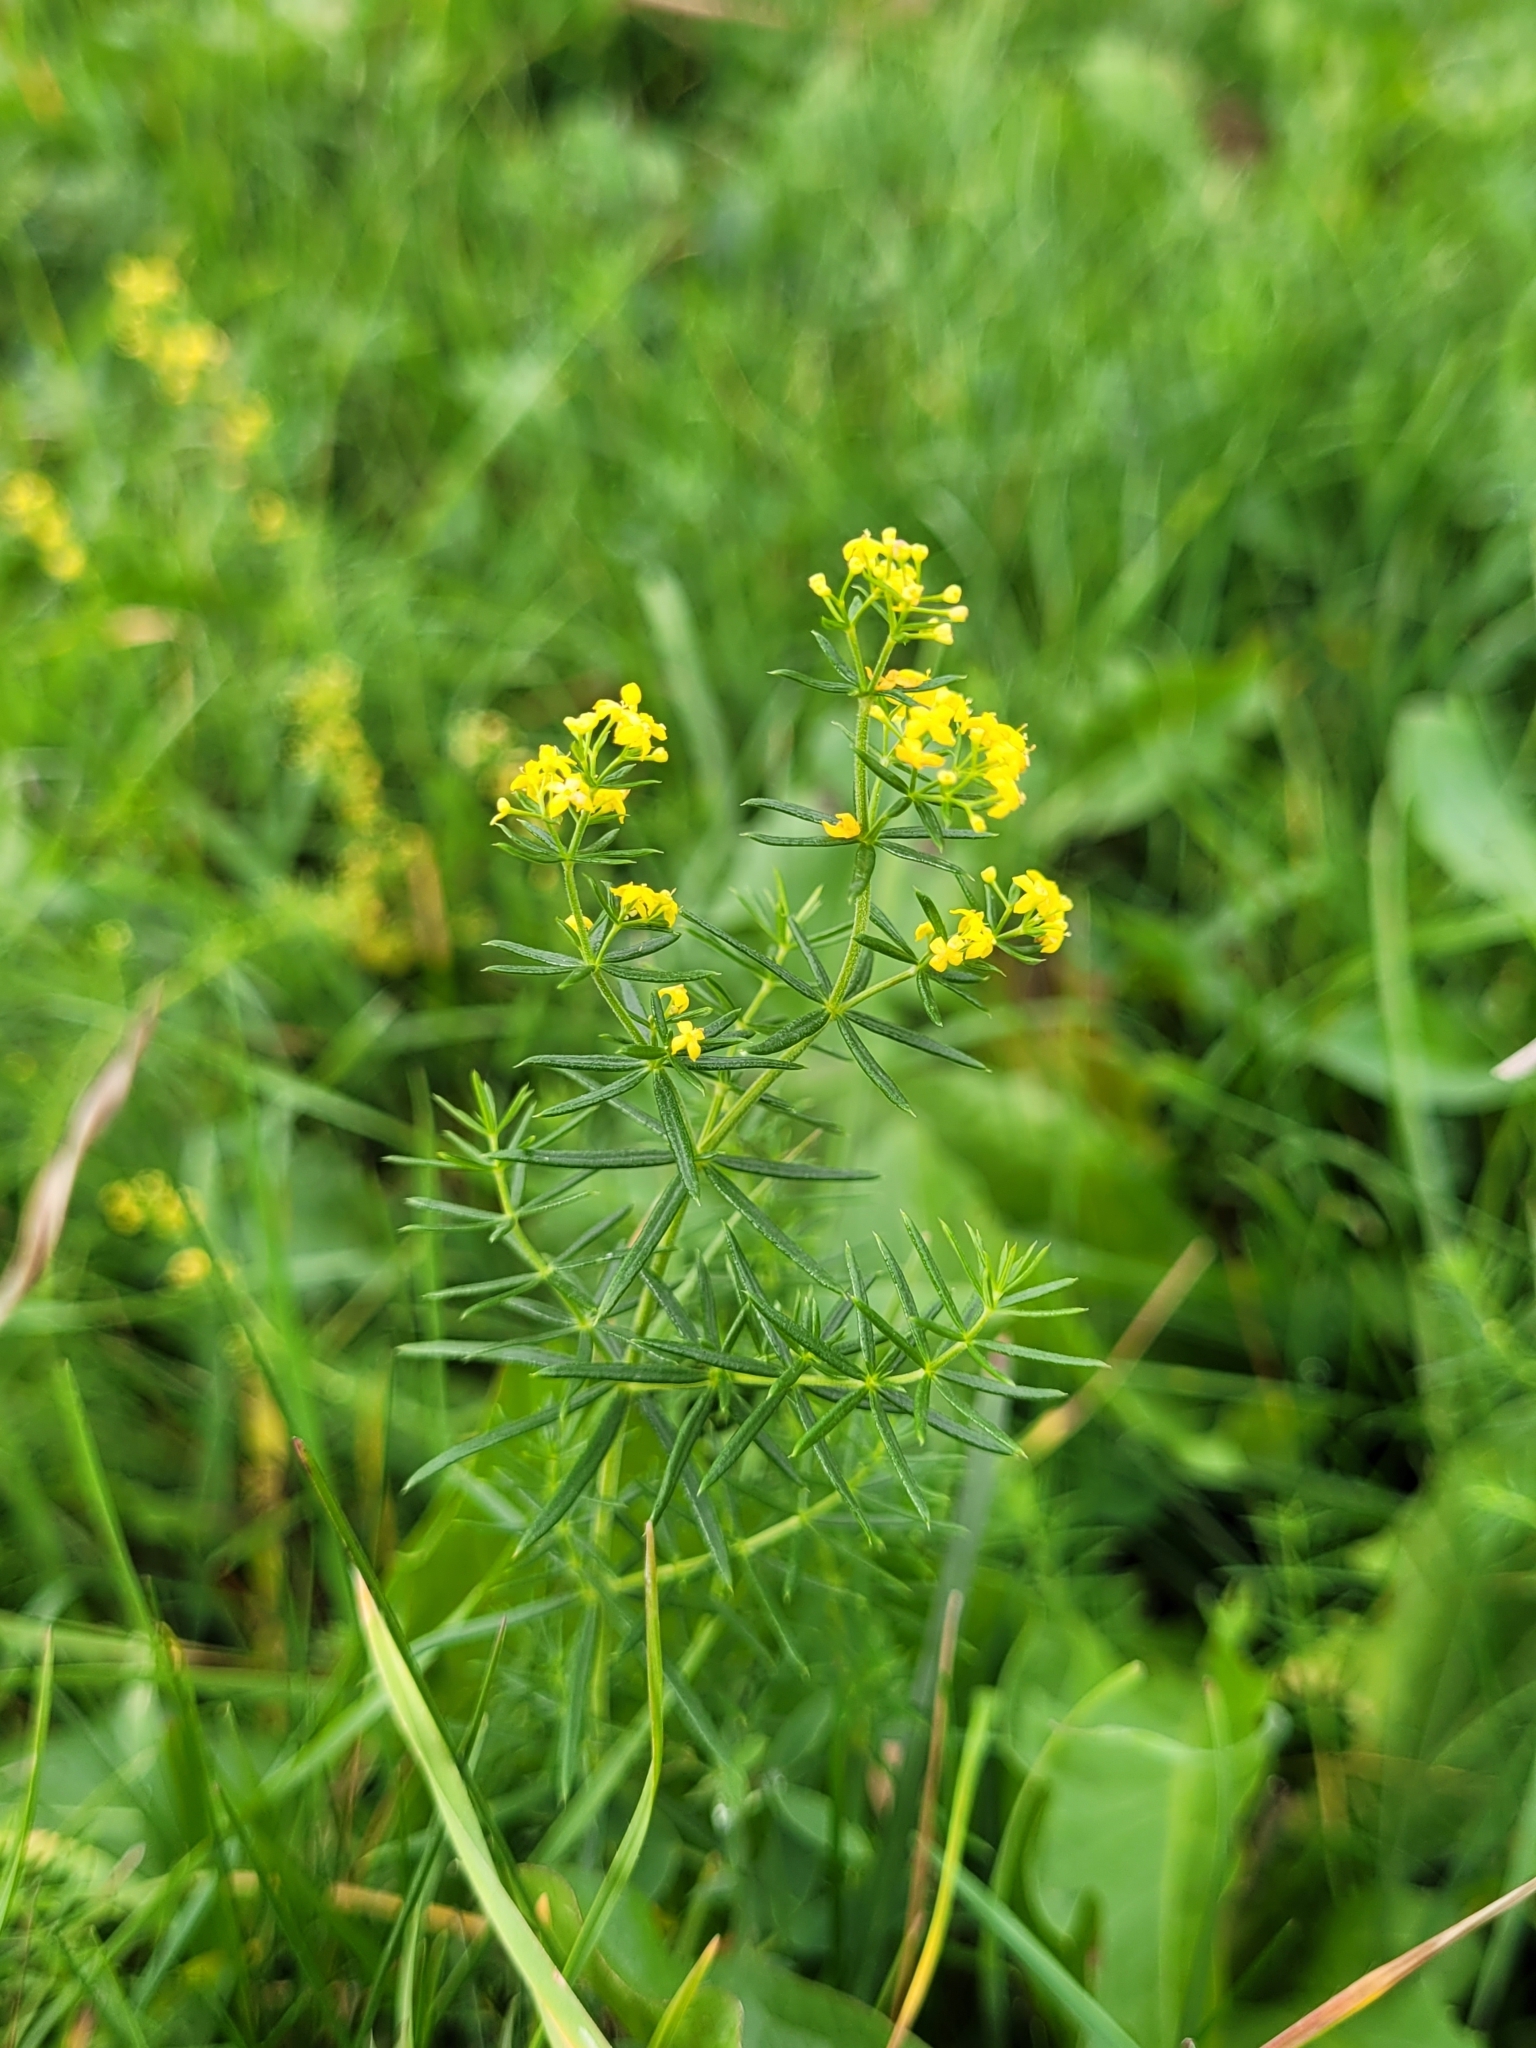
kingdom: Plantae
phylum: Tracheophyta
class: Magnoliopsida
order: Gentianales
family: Rubiaceae
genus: Galium
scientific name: Galium verum
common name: Lady's bedstraw
